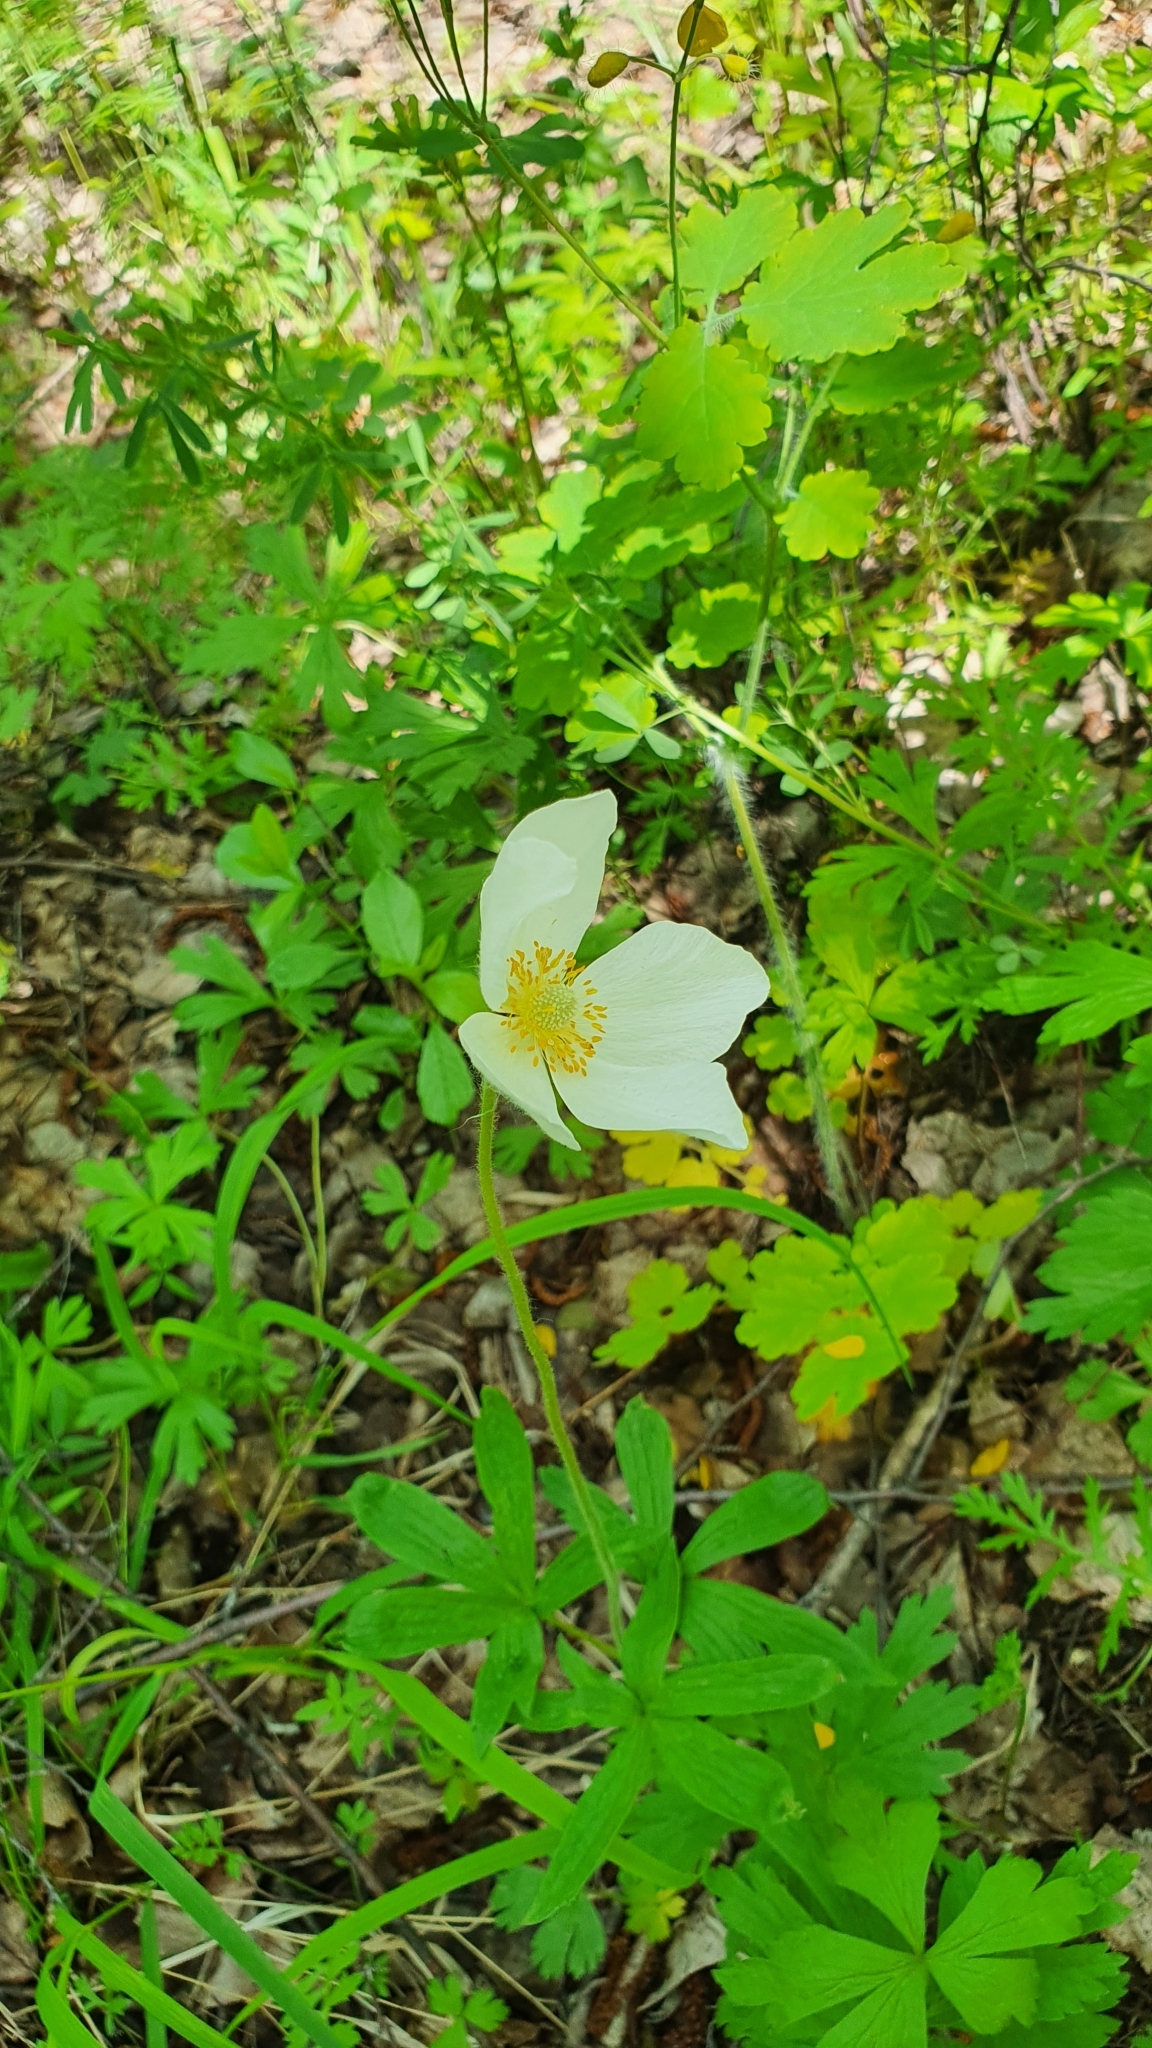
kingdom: Plantae
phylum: Tracheophyta
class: Magnoliopsida
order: Ranunculales
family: Ranunculaceae
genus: Anemone
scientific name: Anemone sylvestris
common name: Snowdrop anemone
